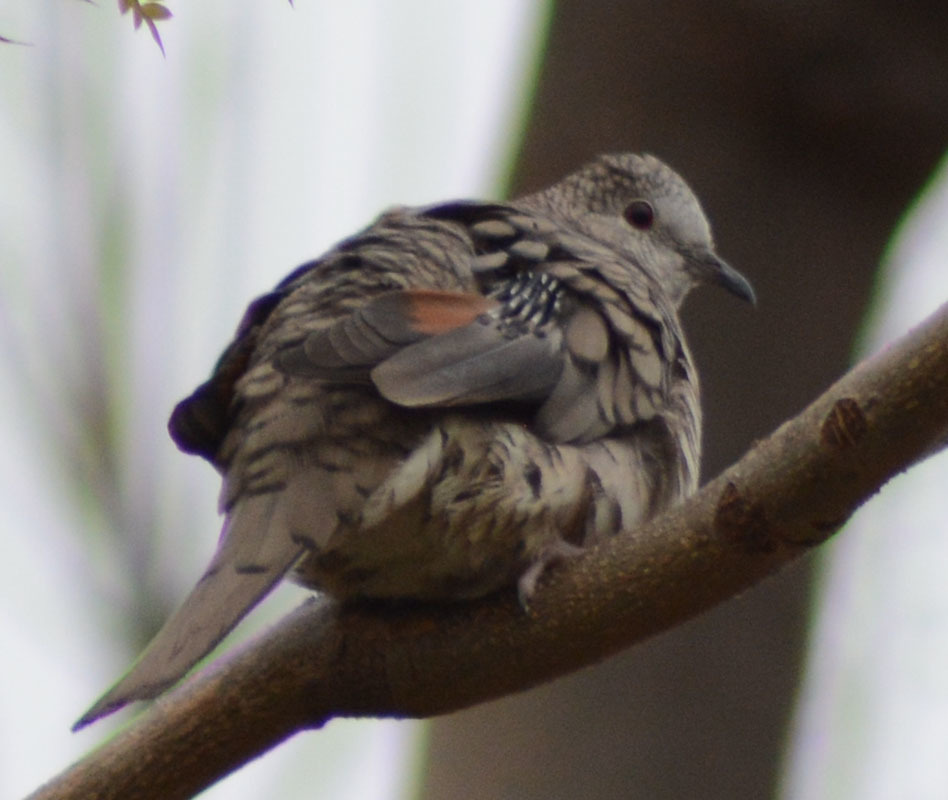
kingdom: Animalia
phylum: Chordata
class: Aves
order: Columbiformes
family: Columbidae
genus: Columbina
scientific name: Columbina inca
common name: Inca dove
